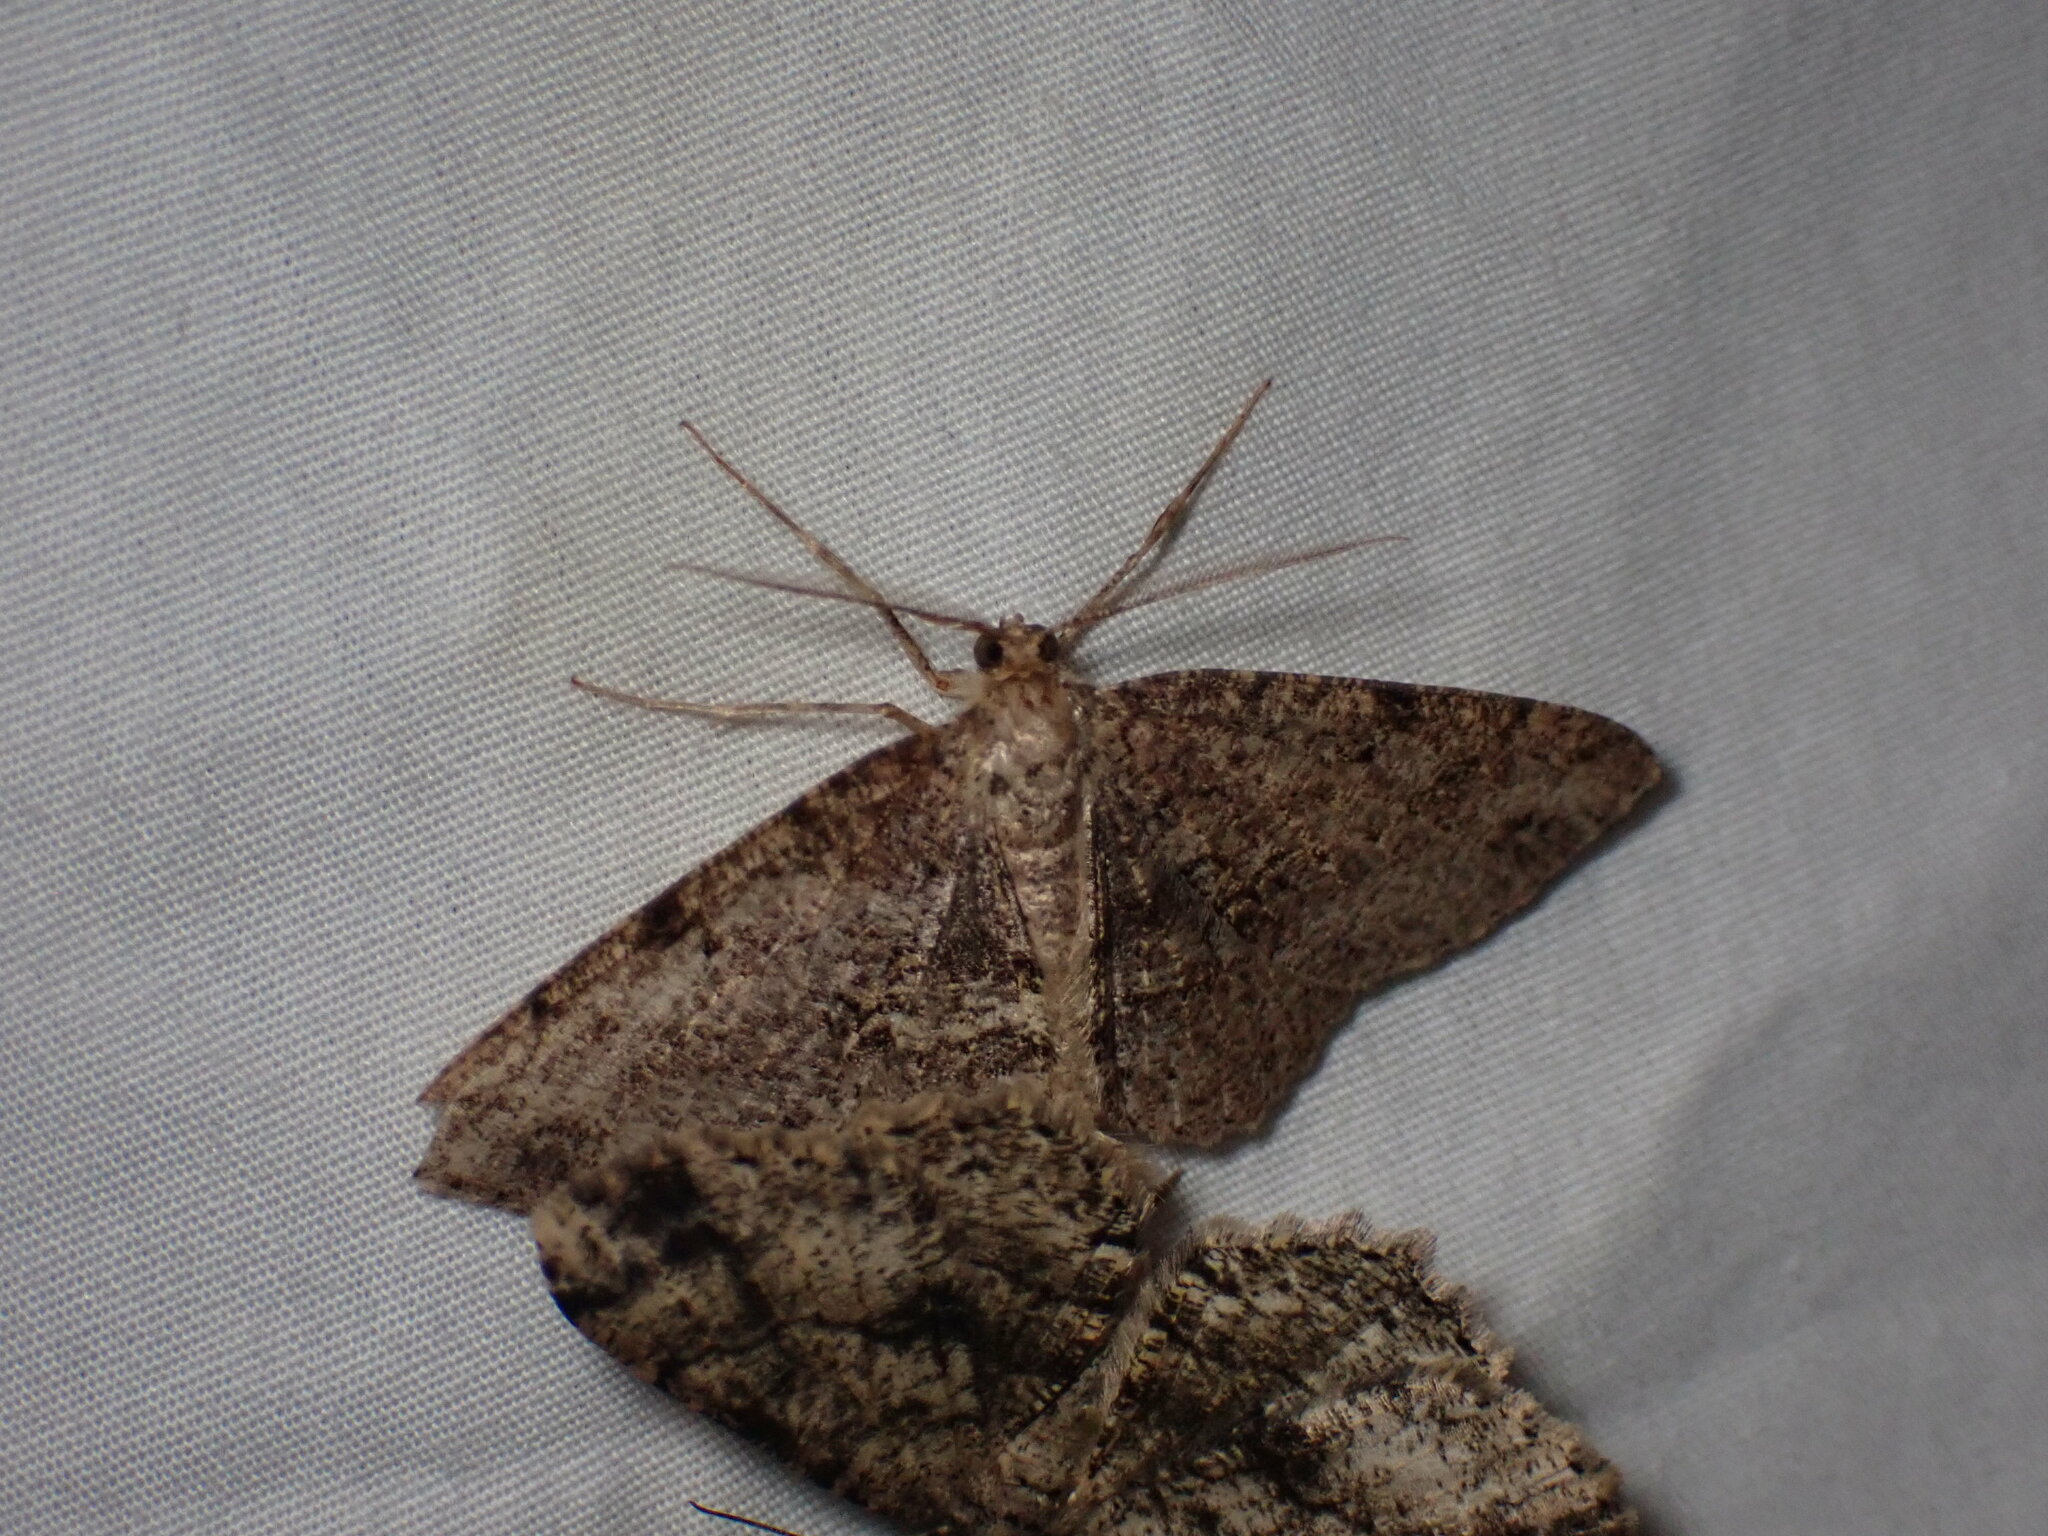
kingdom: Animalia
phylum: Arthropoda
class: Insecta
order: Lepidoptera
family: Geometridae
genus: Melanolophia
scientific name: Melanolophia canadaria
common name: Canadian melanolophia
